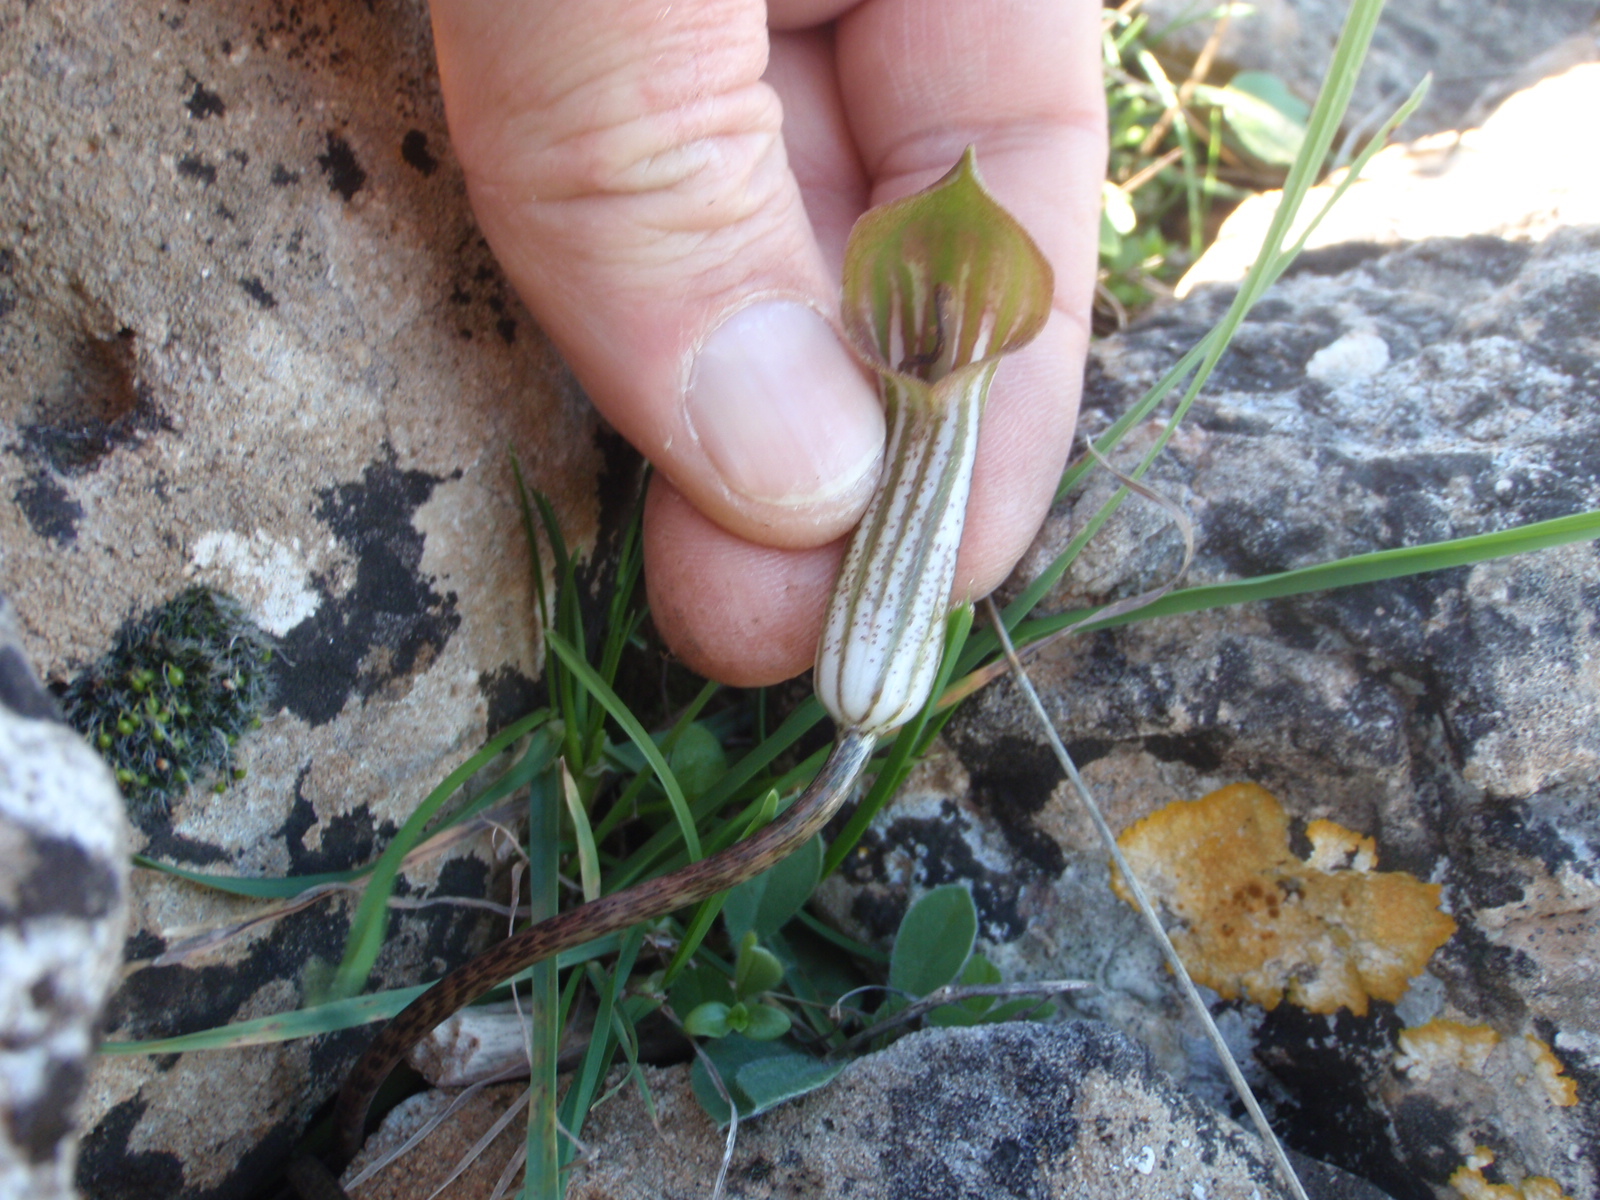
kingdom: Plantae
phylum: Tracheophyta
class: Liliopsida
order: Alismatales
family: Araceae
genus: Arisarum
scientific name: Arisarum vulgare
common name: Common arisarum
